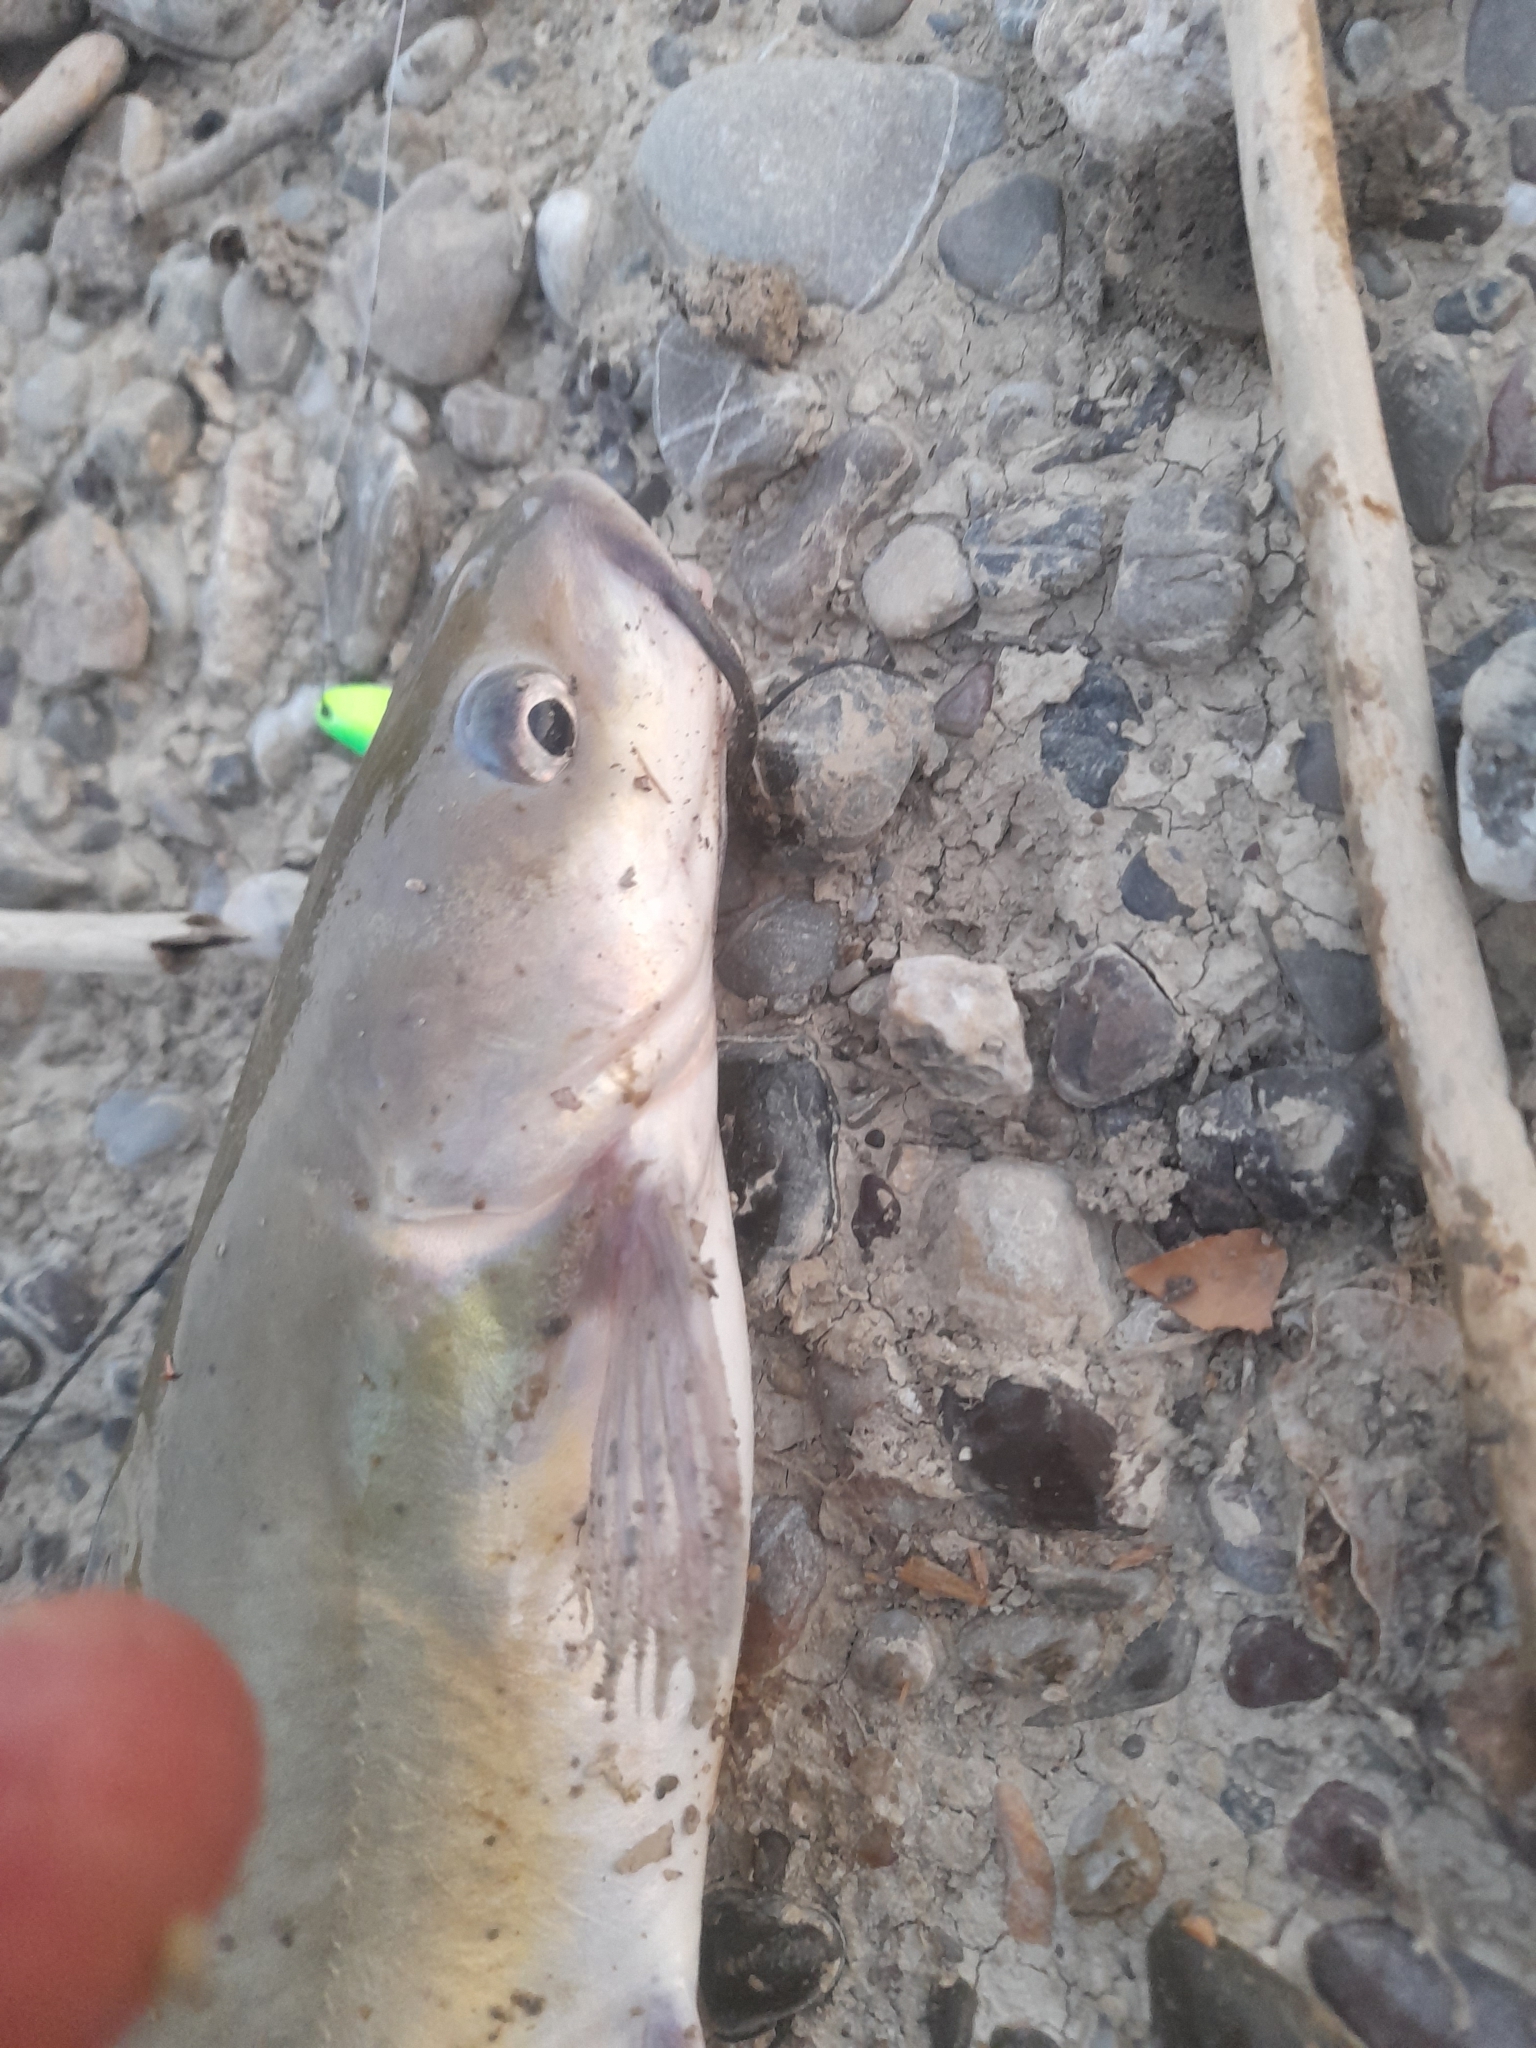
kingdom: Animalia
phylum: Chordata
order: Siluriformes
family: Ictaluridae
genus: Ictalurus
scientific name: Ictalurus punctatus
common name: Channel catfish
